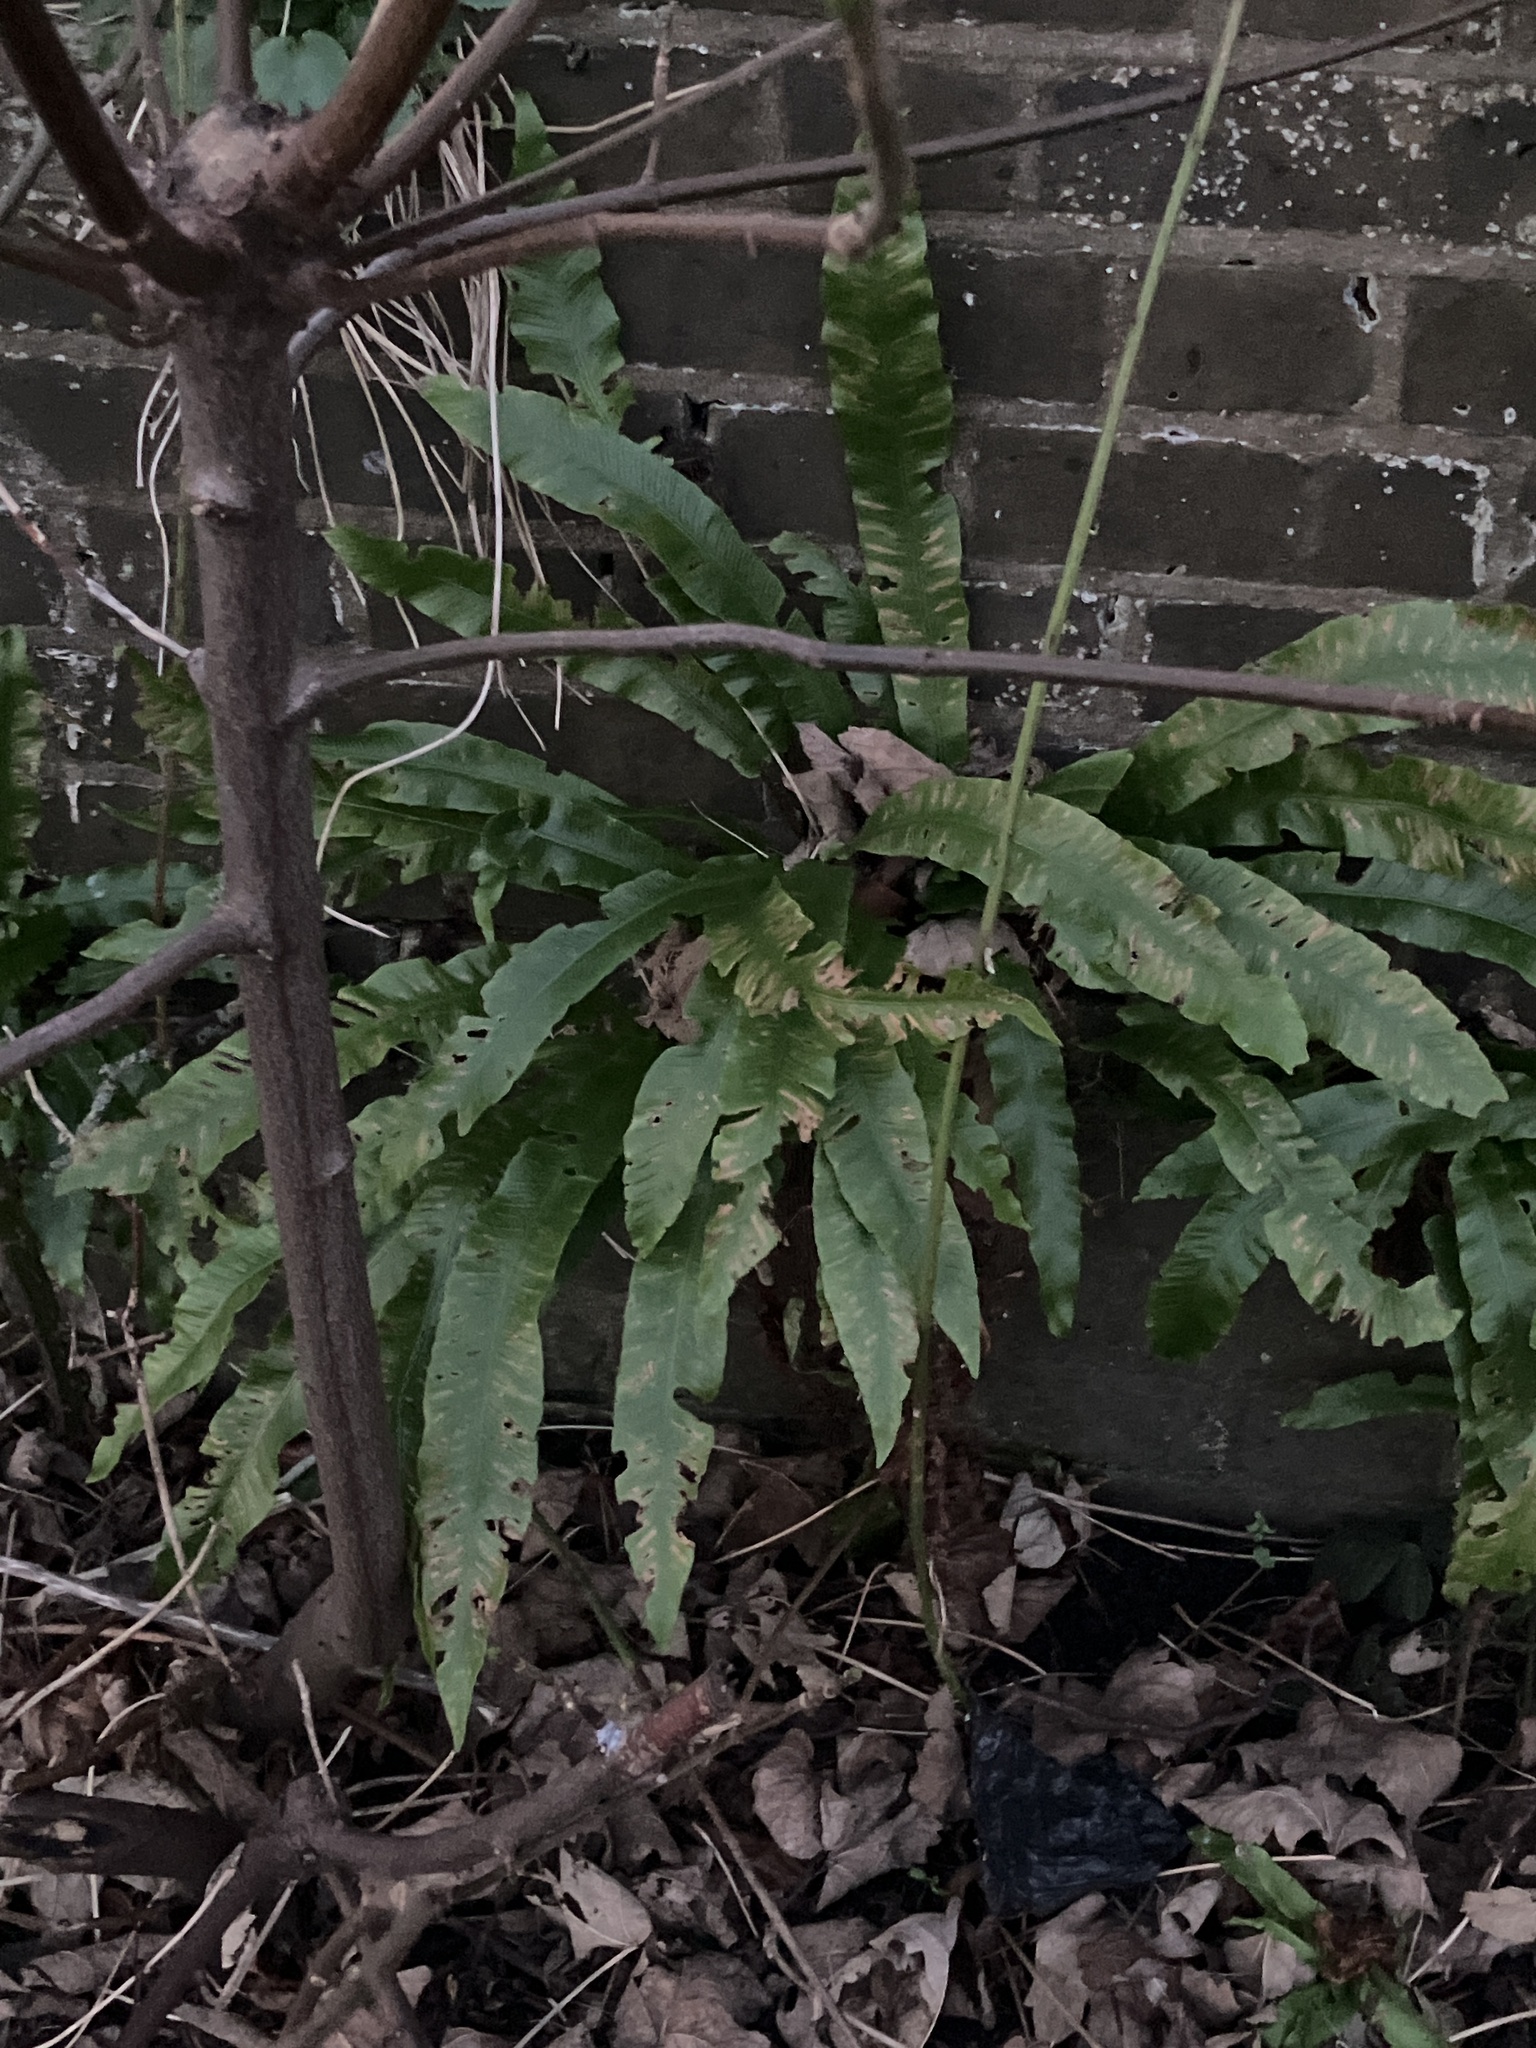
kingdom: Plantae
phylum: Tracheophyta
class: Polypodiopsida
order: Polypodiales
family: Aspleniaceae
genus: Asplenium
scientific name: Asplenium scolopendrium
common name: Hart's-tongue fern
